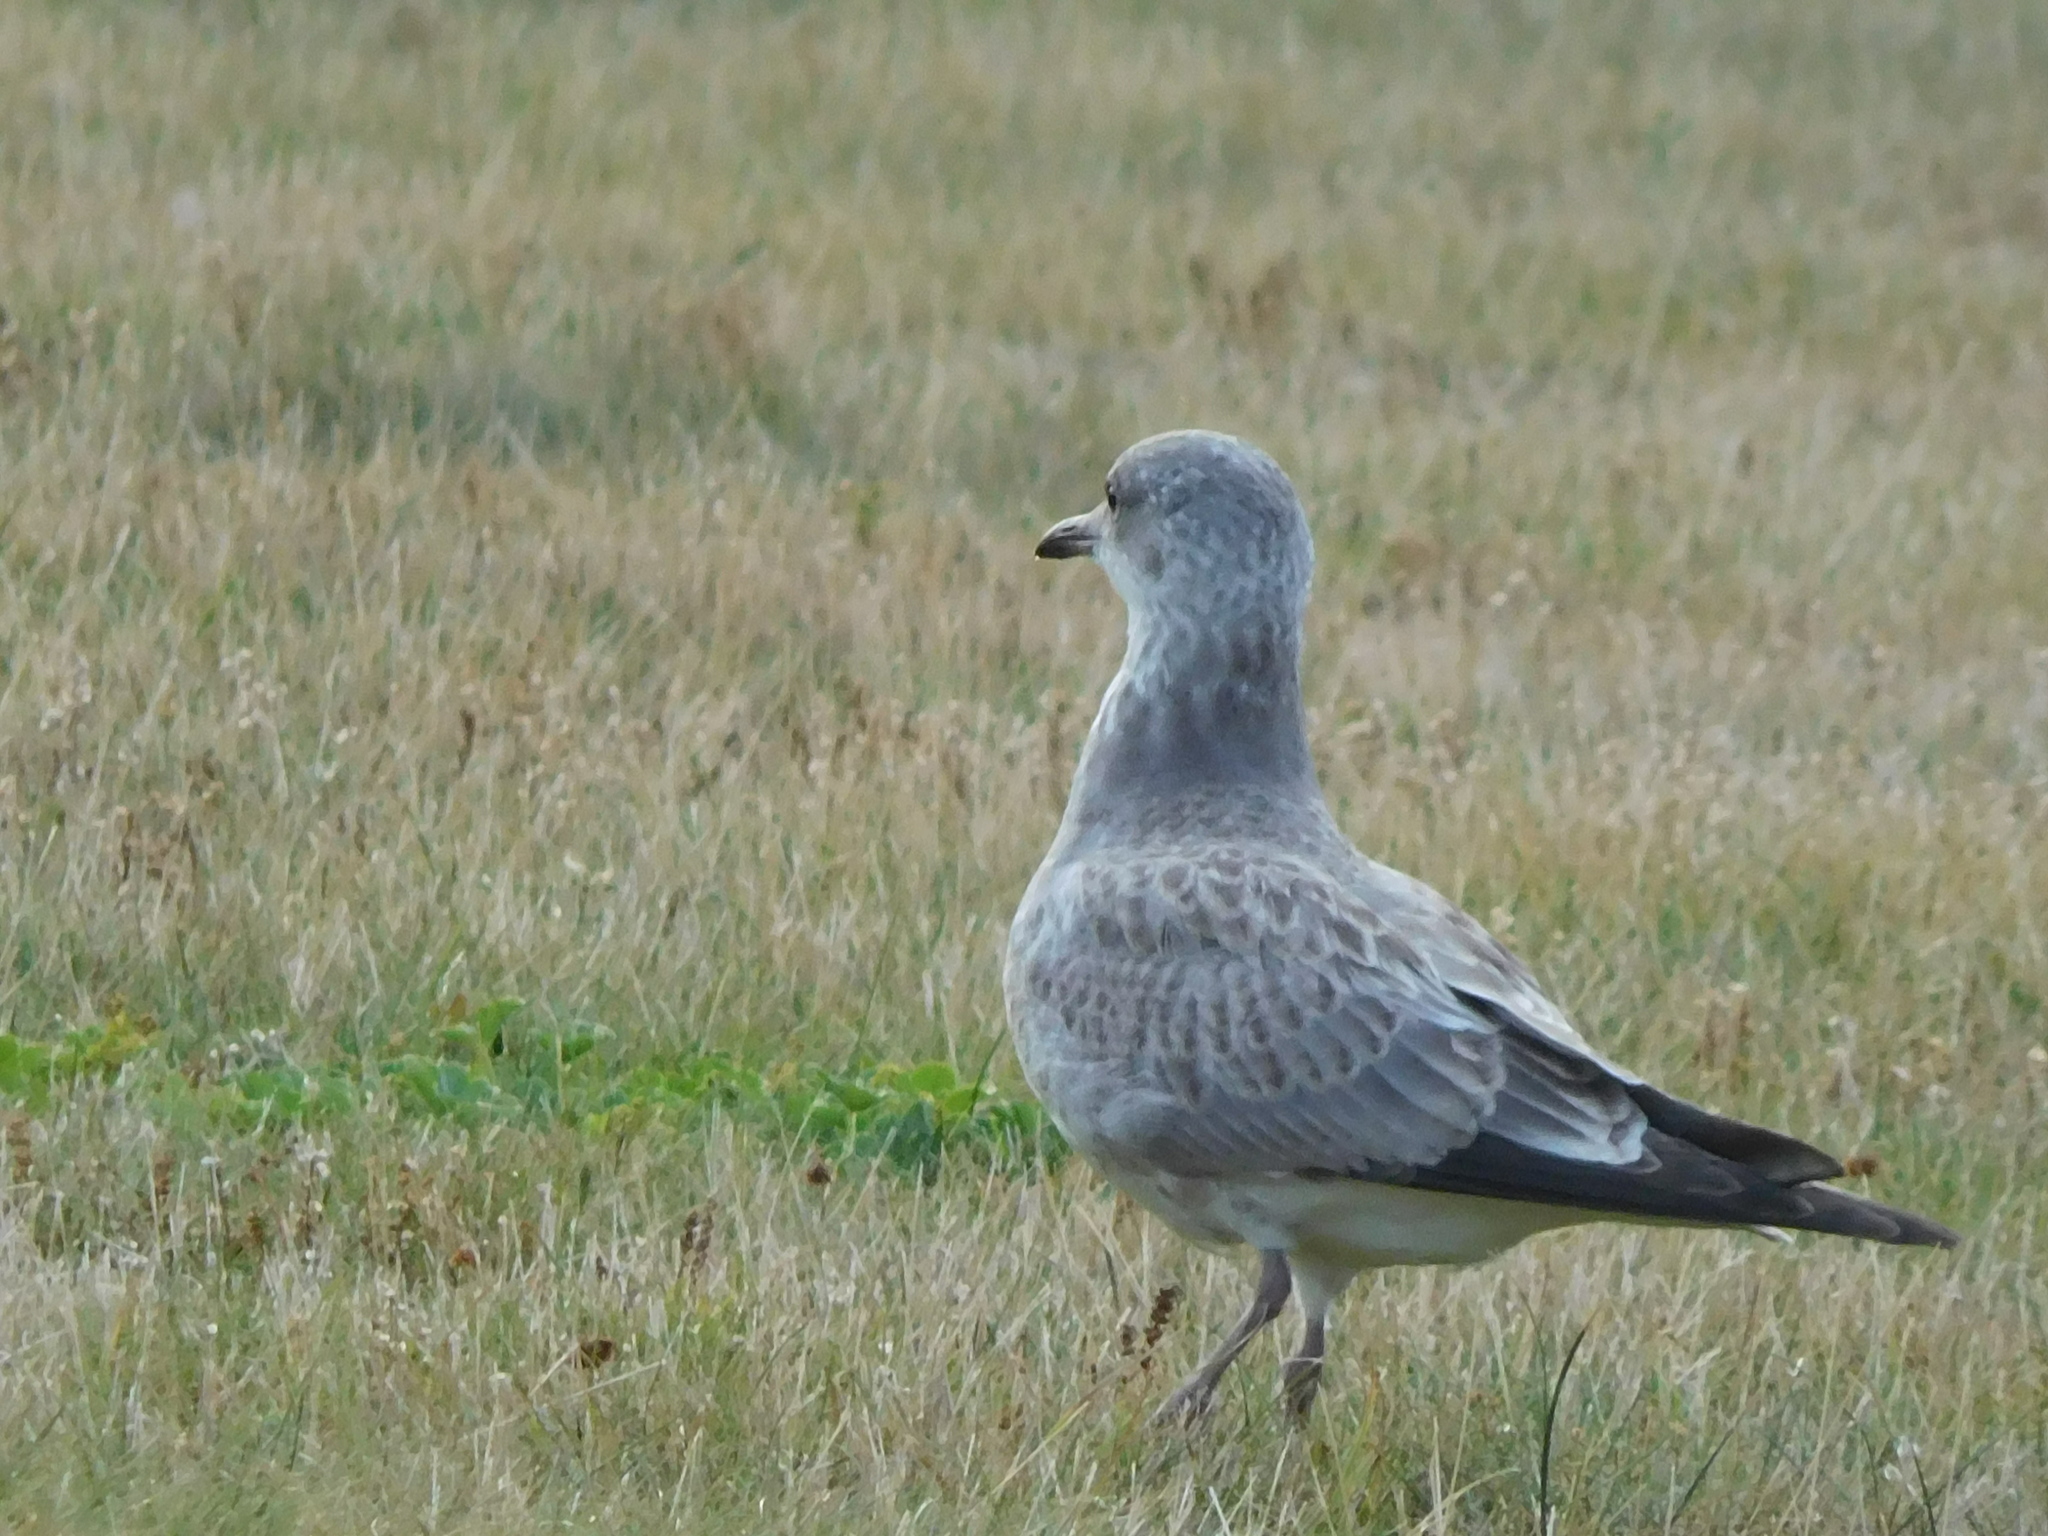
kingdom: Animalia
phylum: Chordata
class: Aves
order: Charadriiformes
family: Laridae
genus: Larus
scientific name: Larus canus
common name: Mew gull
